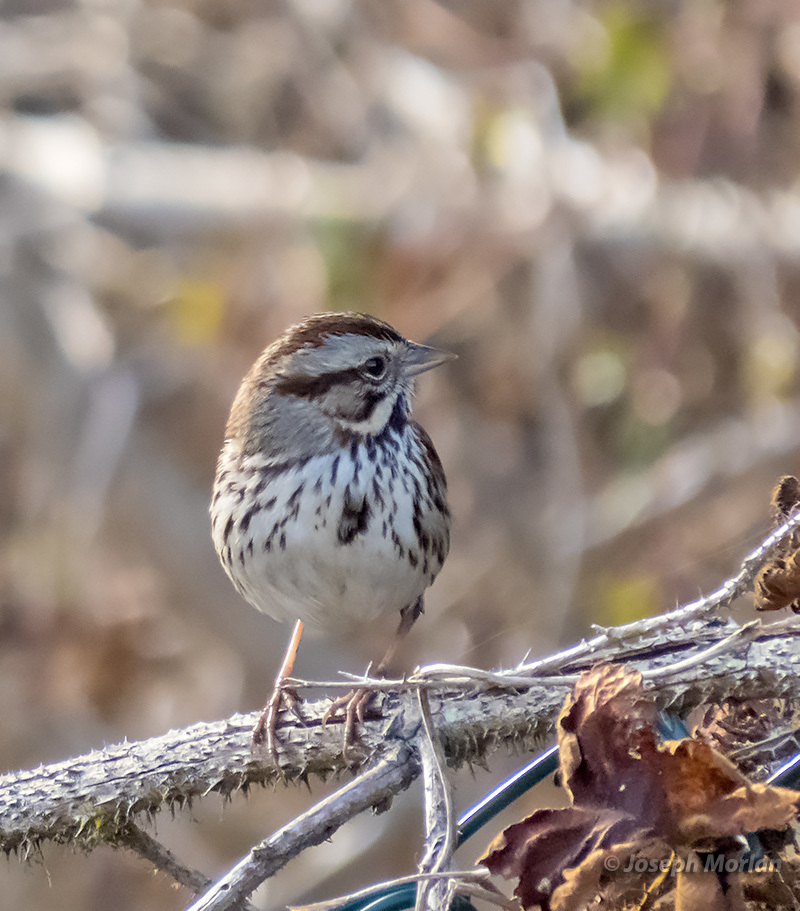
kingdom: Animalia
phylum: Chordata
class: Aves
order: Passeriformes
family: Passerellidae
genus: Melospiza
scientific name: Melospiza melodia
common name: Song sparrow
